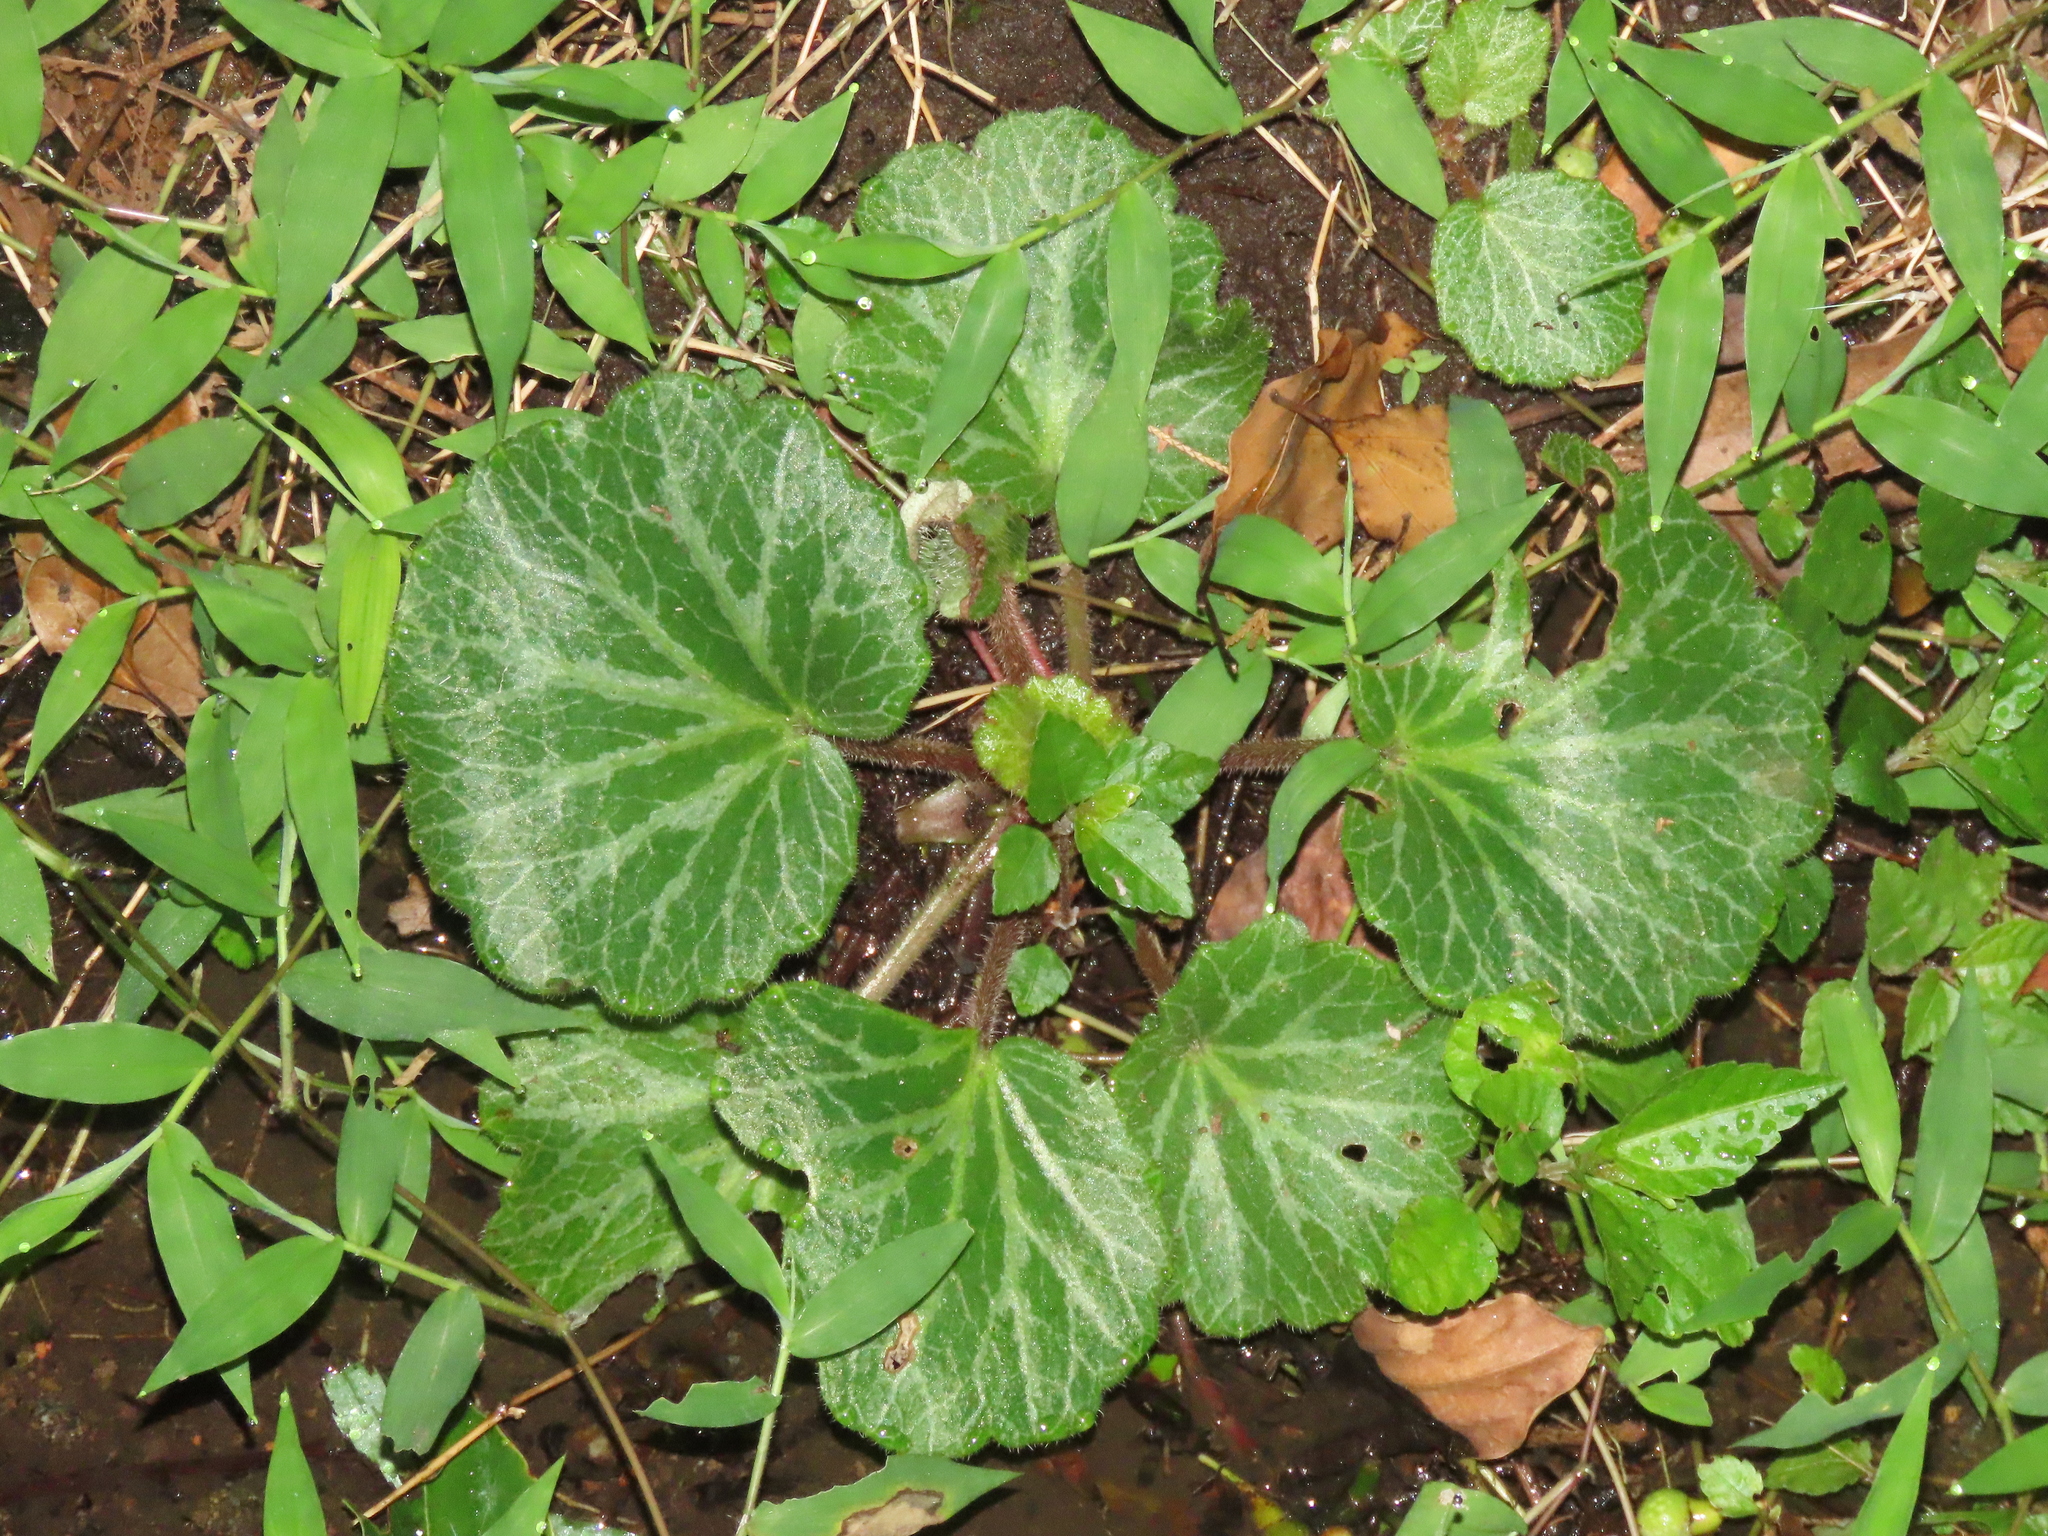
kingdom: Plantae
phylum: Tracheophyta
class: Magnoliopsida
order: Saxifragales
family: Saxifragaceae
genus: Saxifraga
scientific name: Saxifraga stolonifera
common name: Creeping saxifrage
